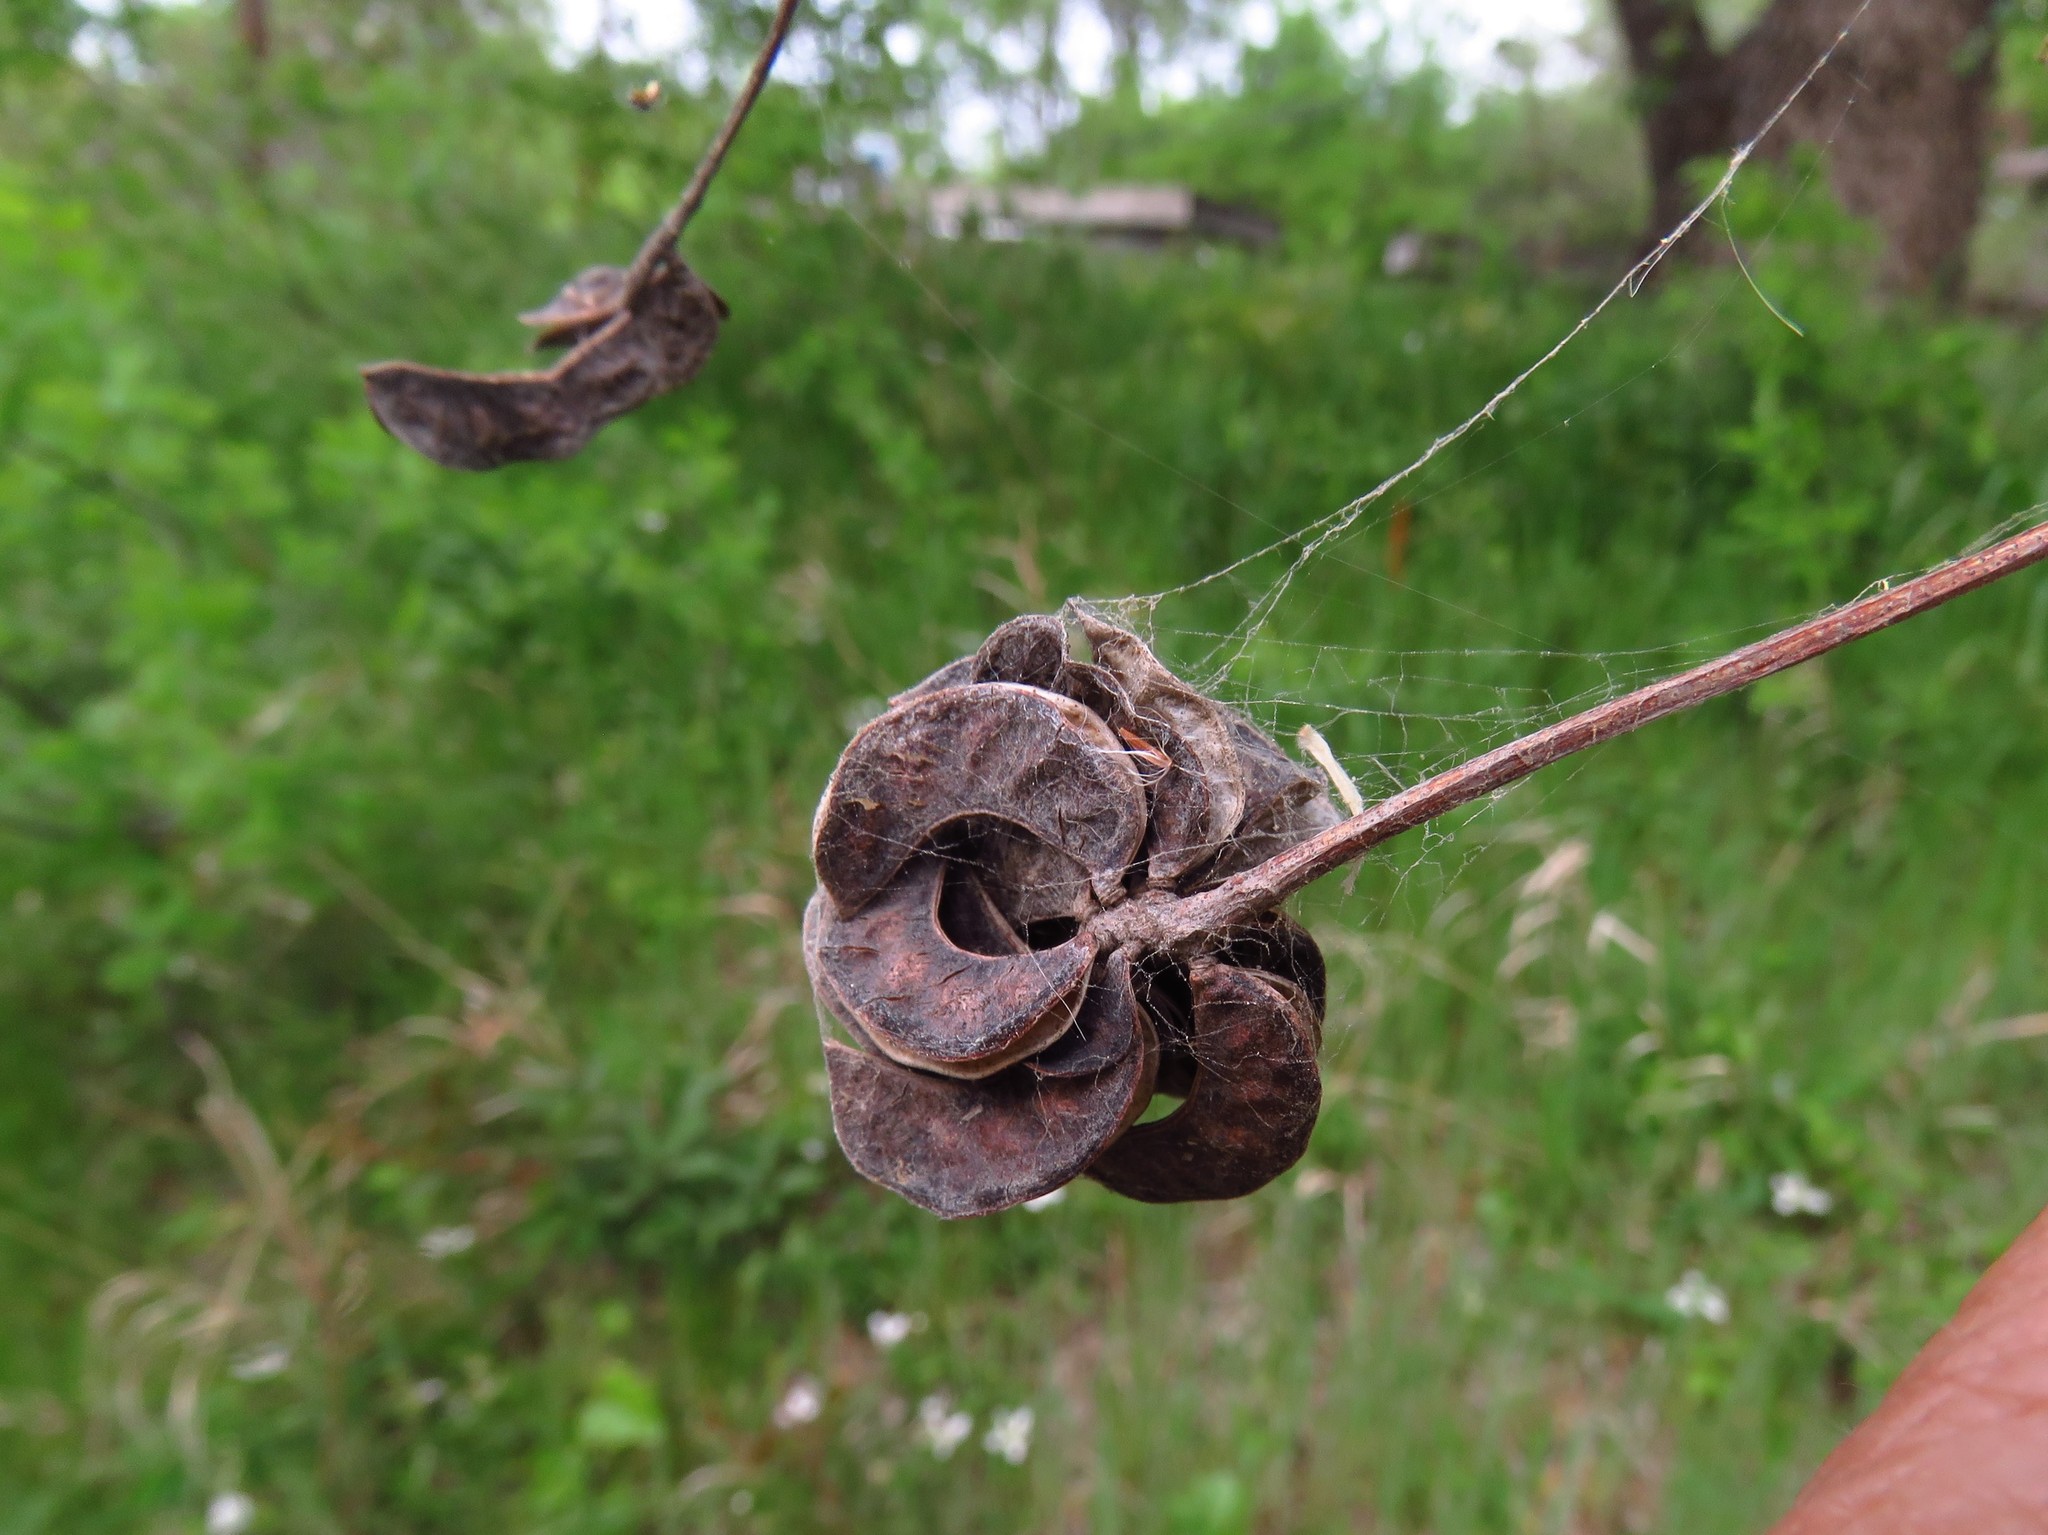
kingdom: Plantae
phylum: Tracheophyta
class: Magnoliopsida
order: Fabales
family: Fabaceae
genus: Desmanthus
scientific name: Desmanthus illinoensis
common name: Illinois bundle-flower
